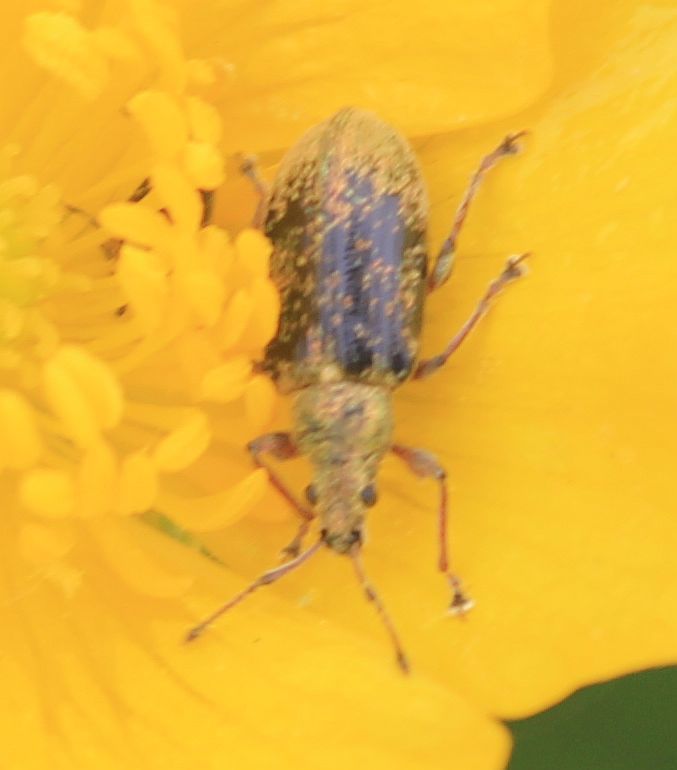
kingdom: Animalia
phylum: Arthropoda
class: Insecta
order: Coleoptera
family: Curculionidae
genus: Phyllobius
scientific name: Phyllobius pyri
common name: Common leaf weevil
